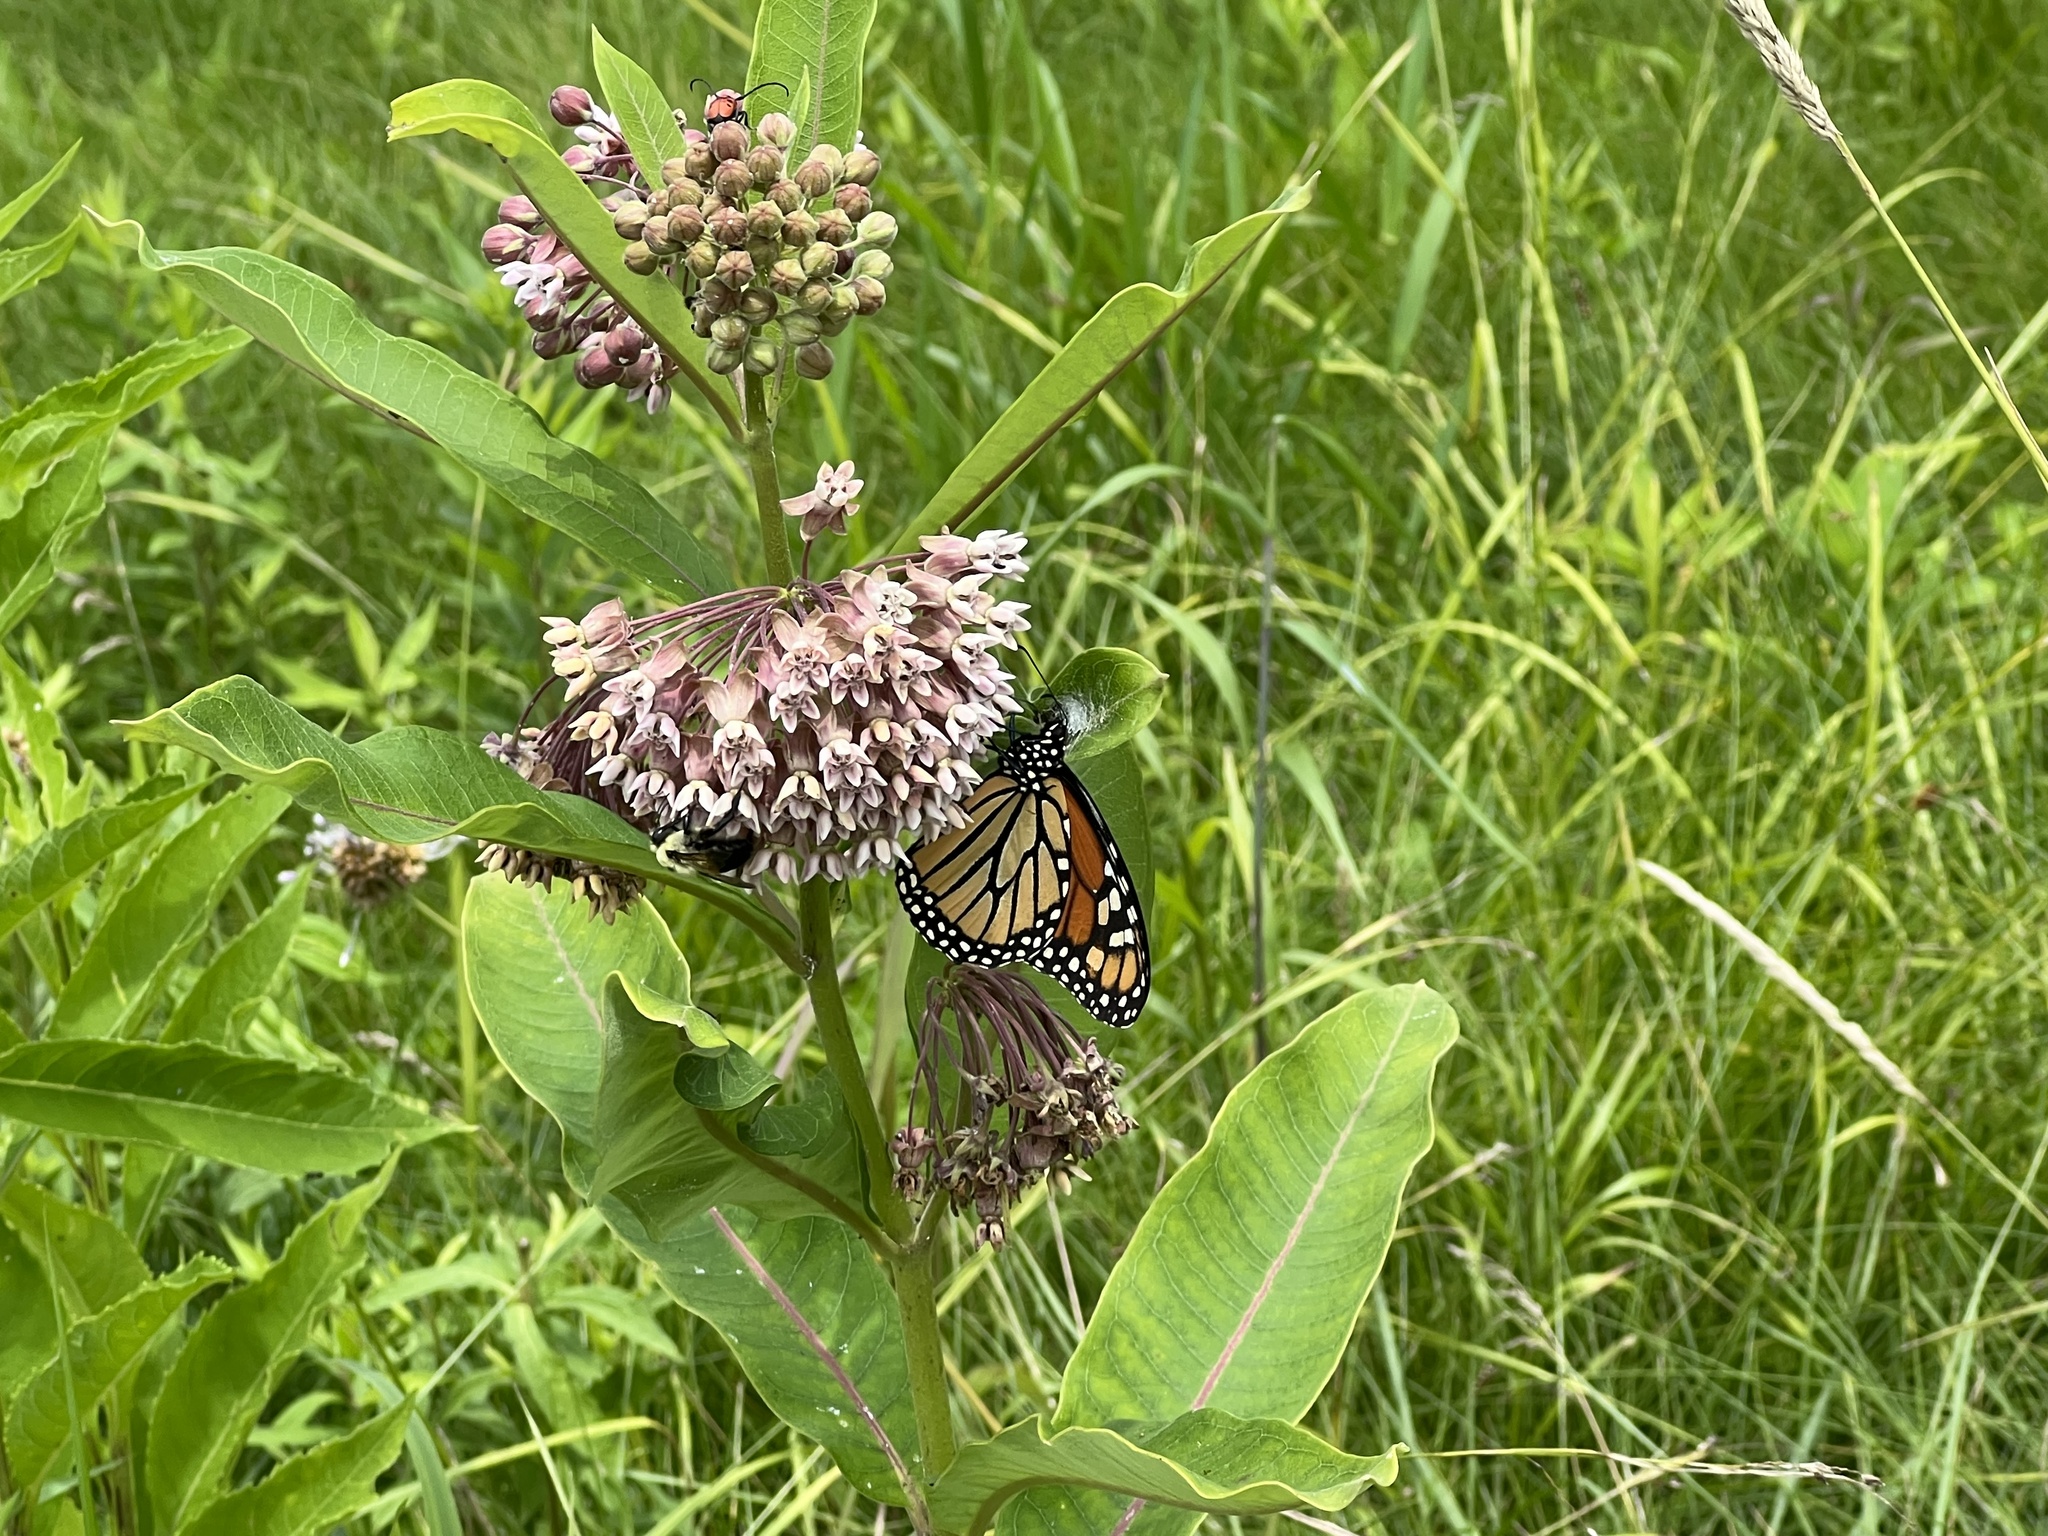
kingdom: Animalia
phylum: Arthropoda
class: Insecta
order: Lepidoptera
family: Nymphalidae
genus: Danaus
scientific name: Danaus plexippus
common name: Monarch
